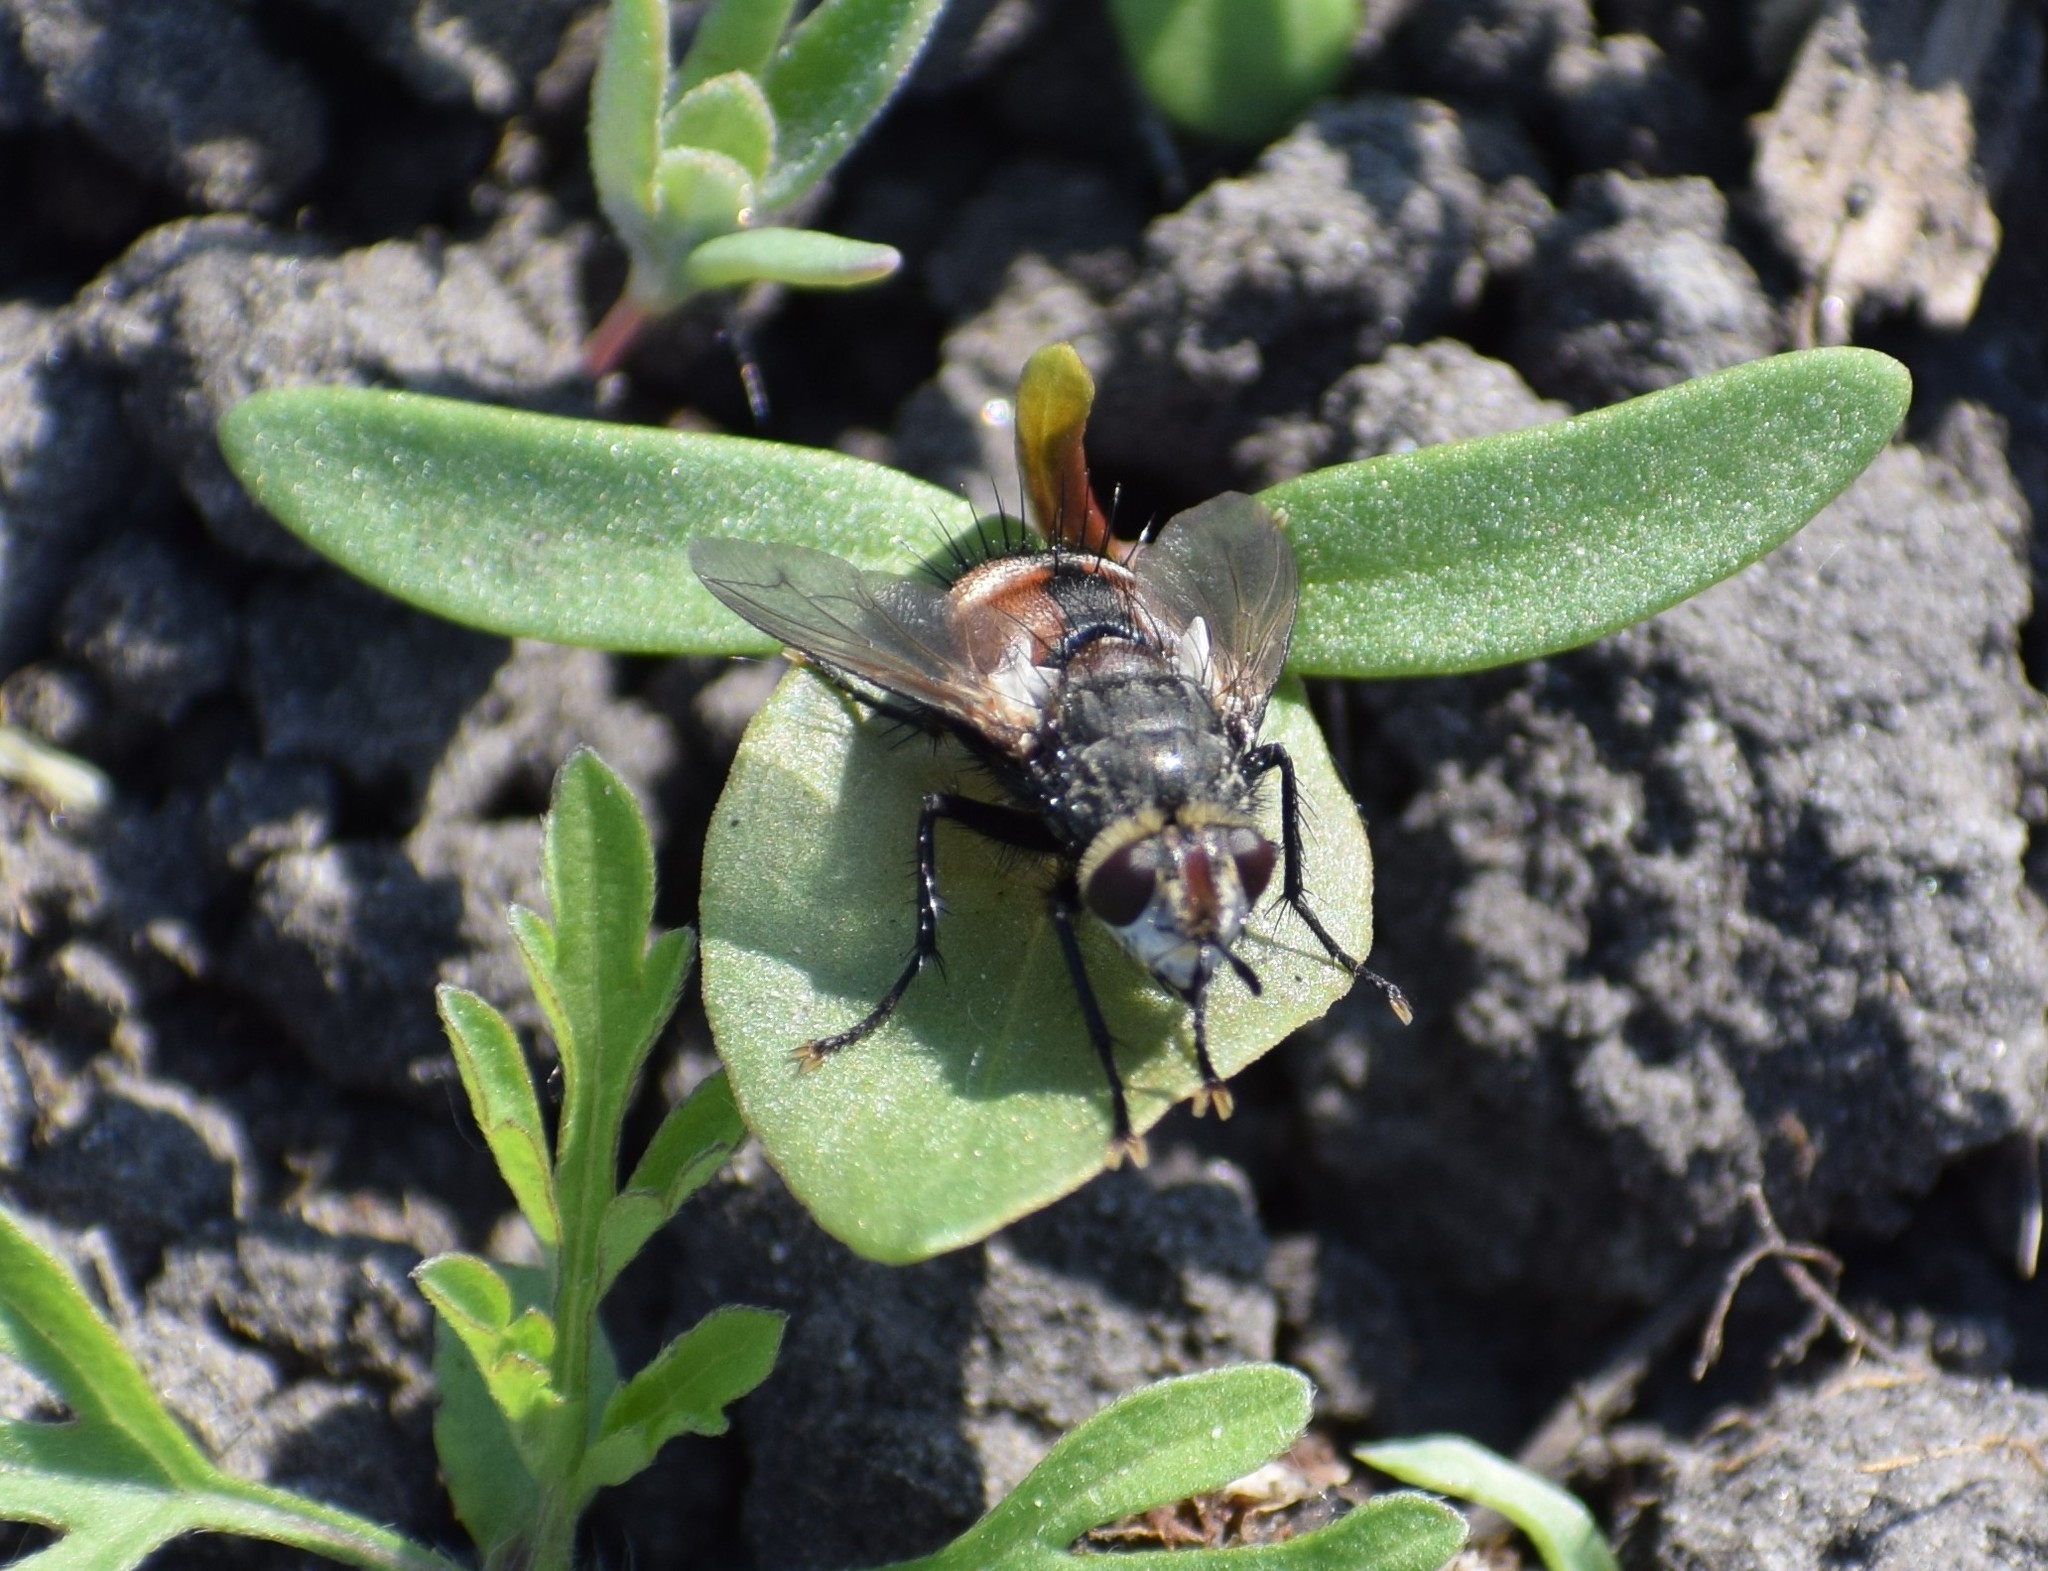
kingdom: Animalia
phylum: Arthropoda
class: Insecta
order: Diptera
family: Tachinidae
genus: Peleteria
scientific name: Peleteria
